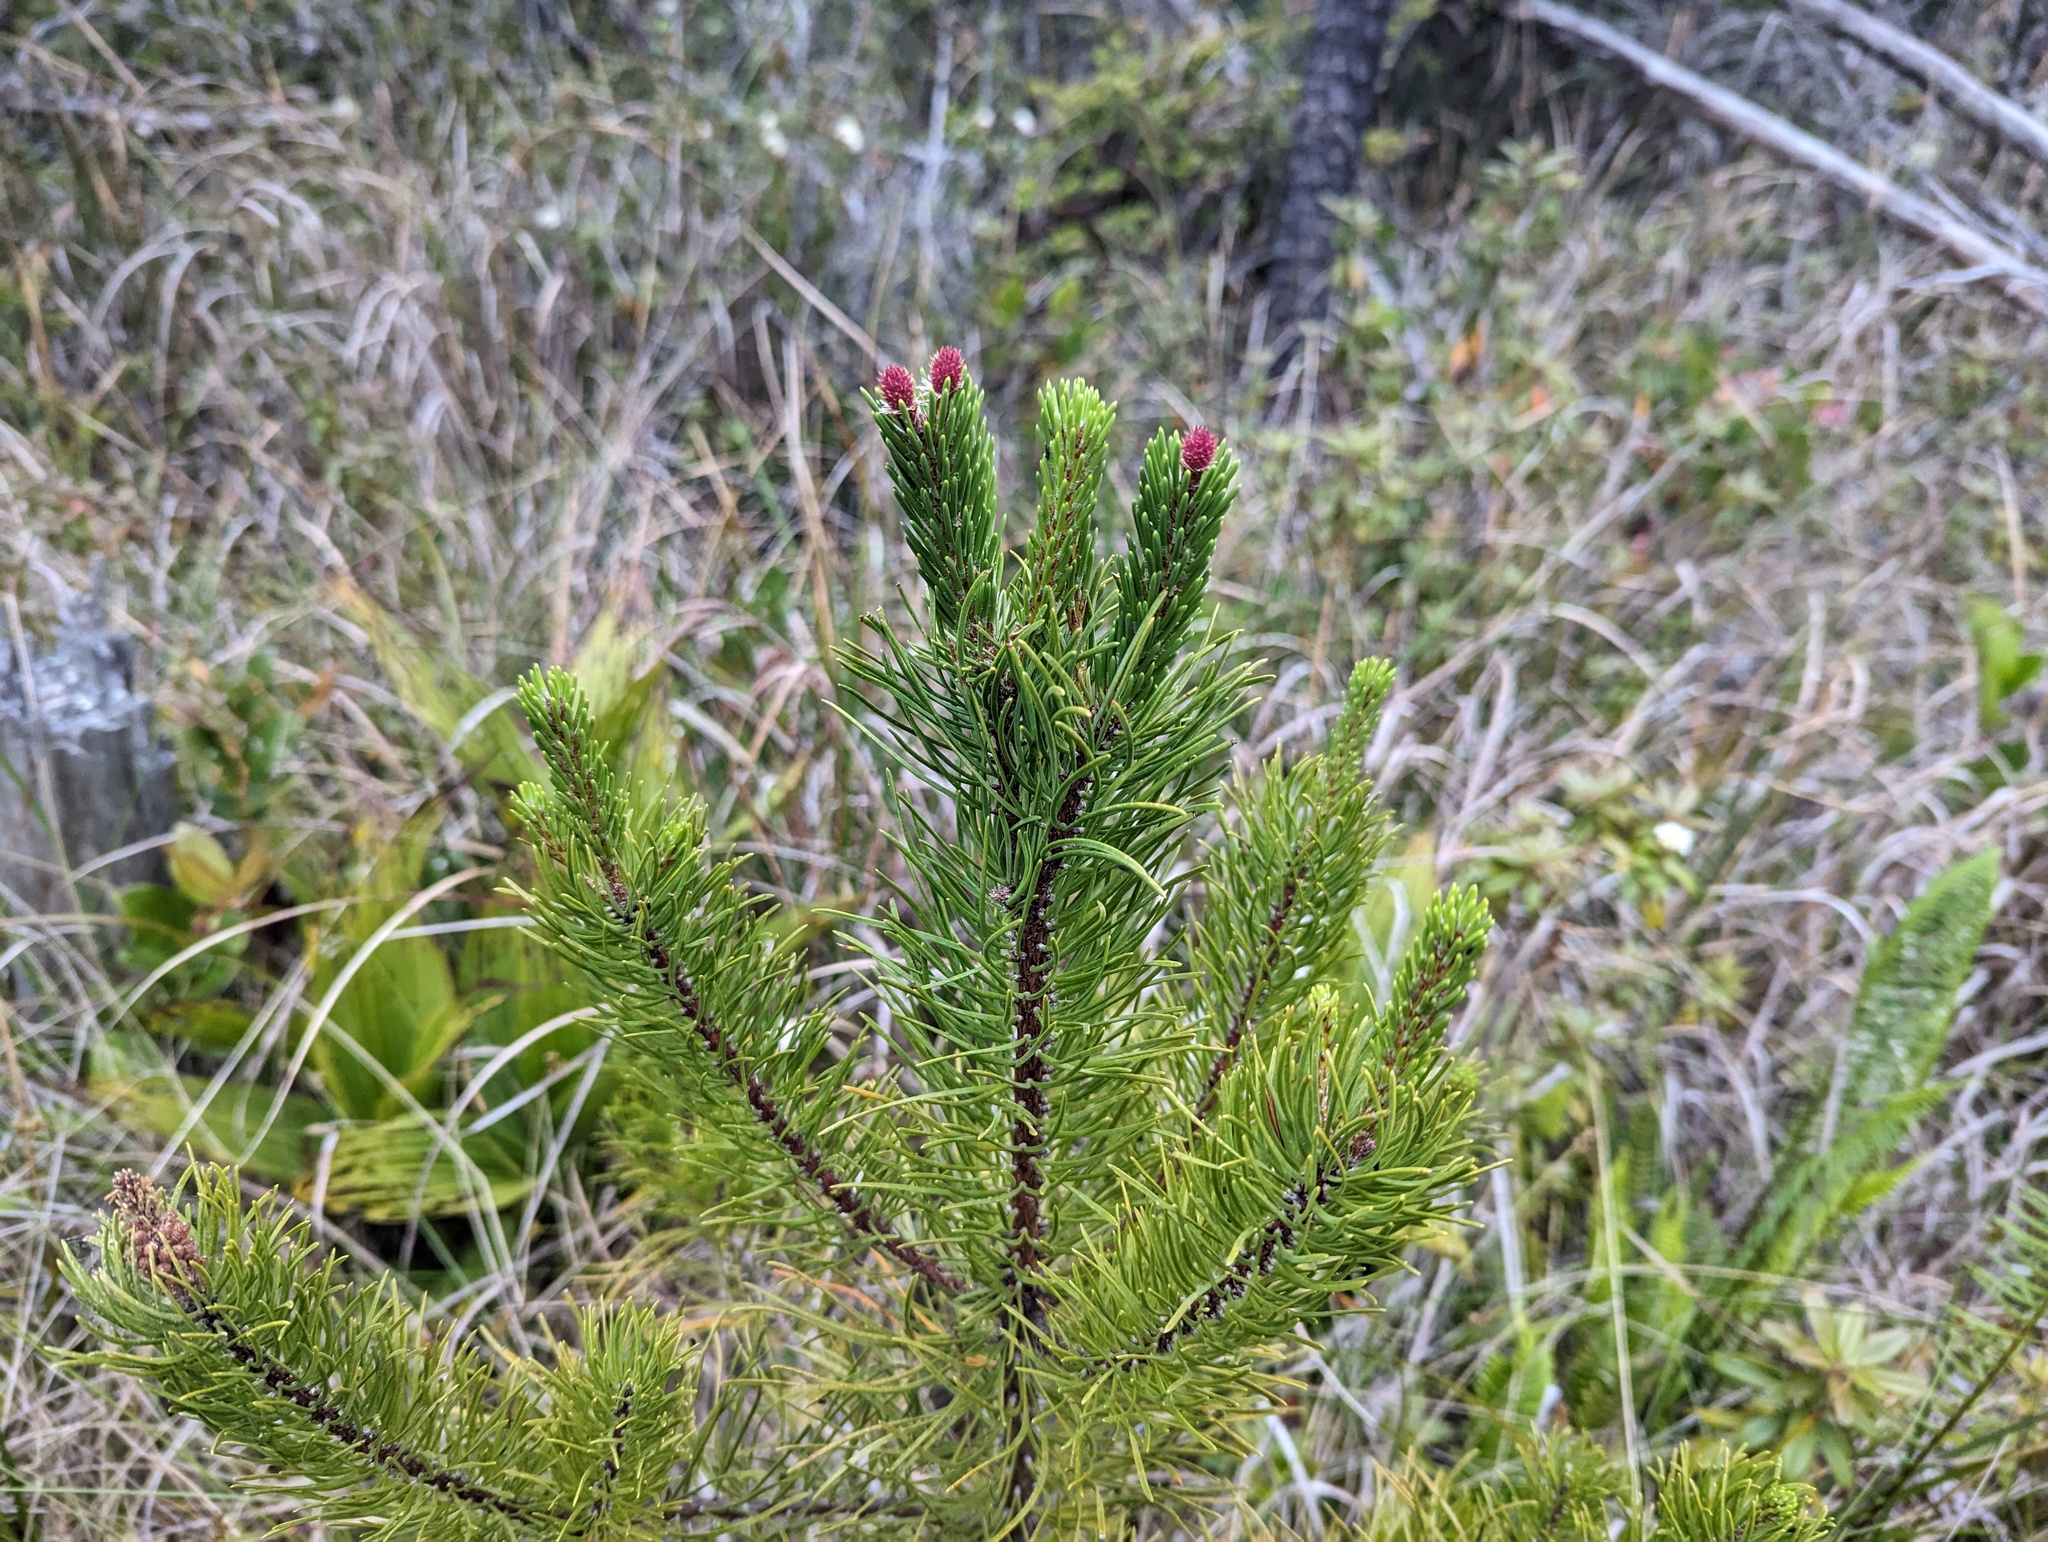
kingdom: Plantae
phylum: Tracheophyta
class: Pinopsida
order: Pinales
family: Pinaceae
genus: Pinus
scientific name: Pinus contorta
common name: Lodgepole pine
